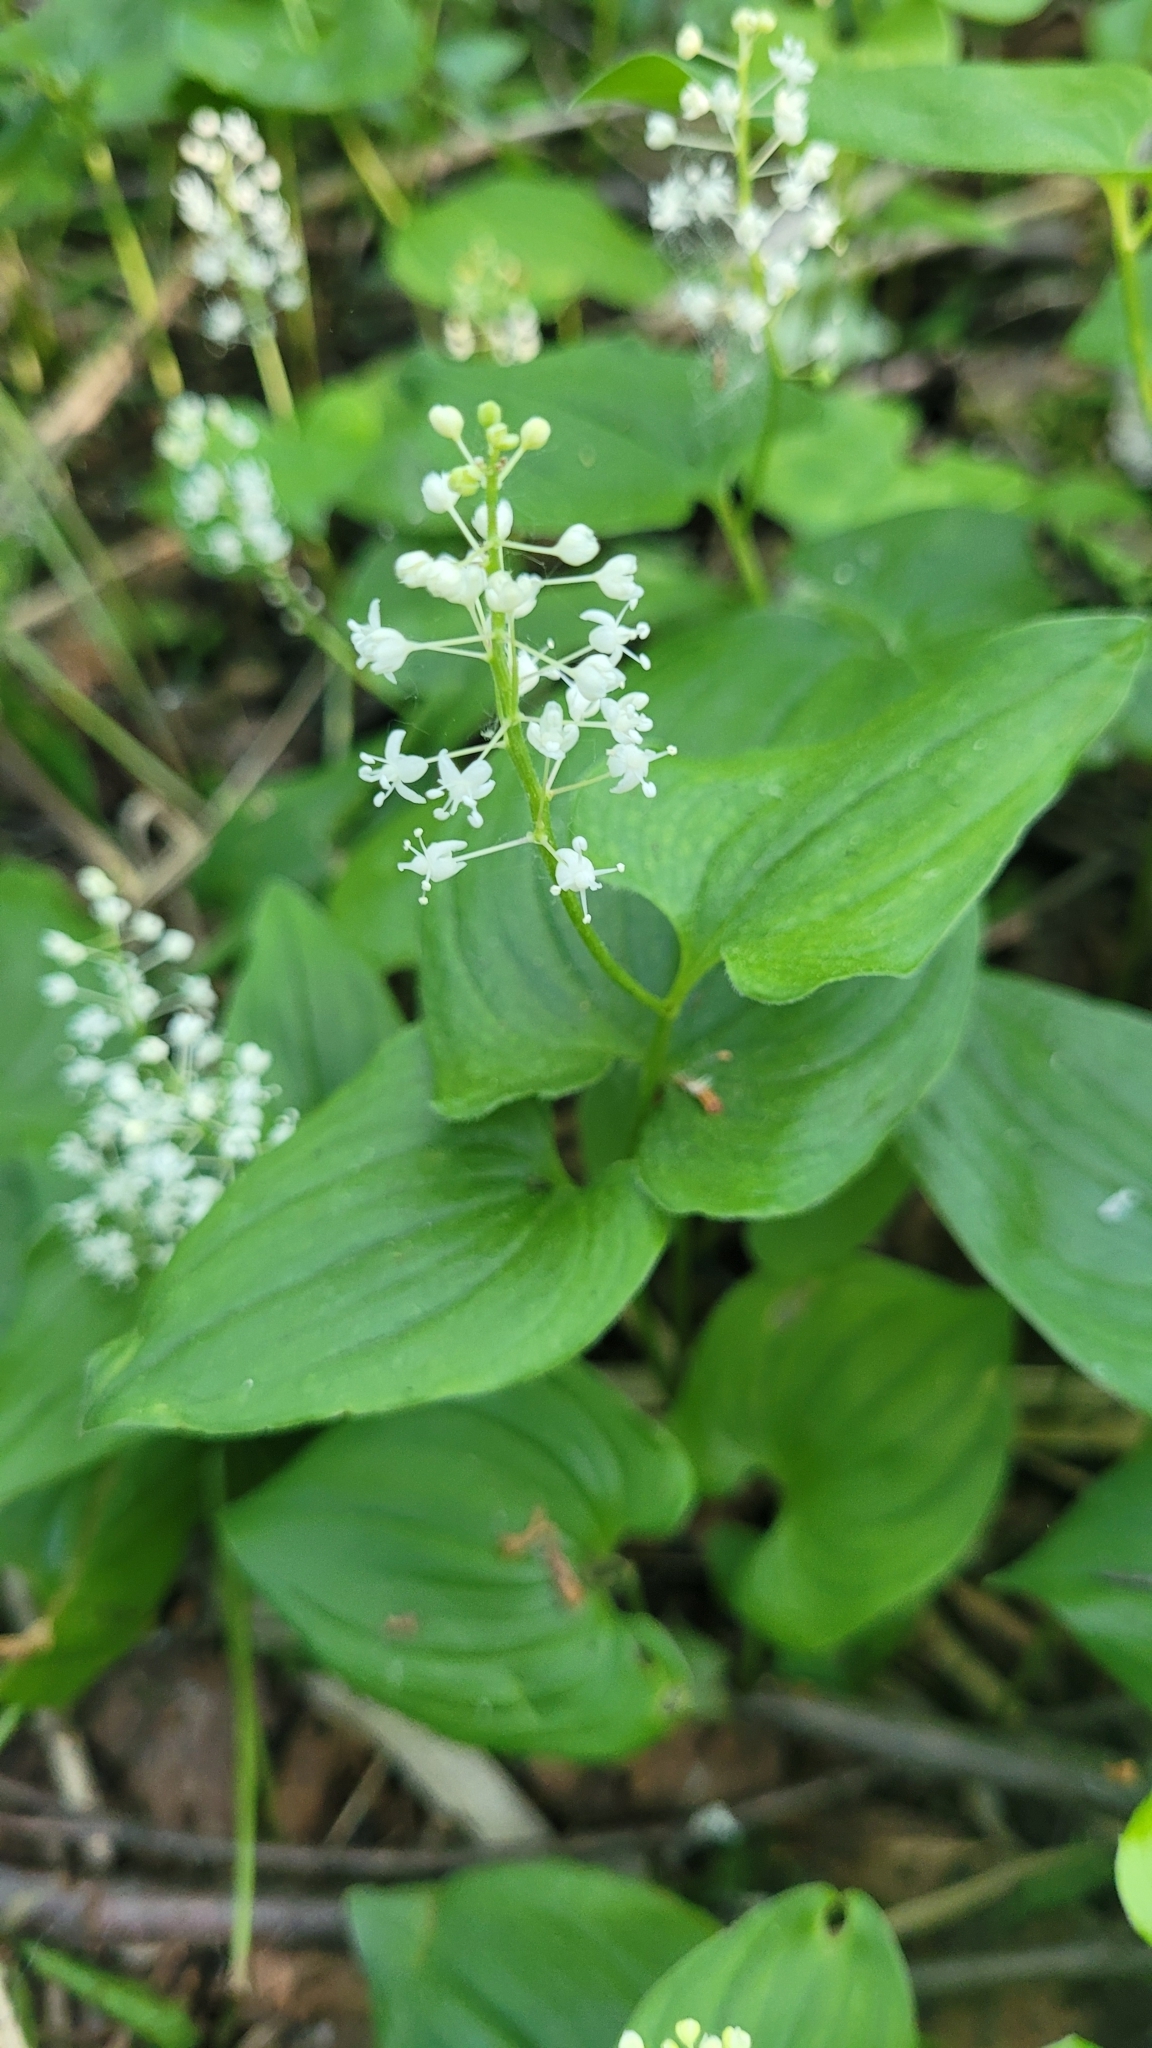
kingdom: Plantae
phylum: Tracheophyta
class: Liliopsida
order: Asparagales
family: Asparagaceae
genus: Maianthemum
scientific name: Maianthemum bifolium
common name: May lily
